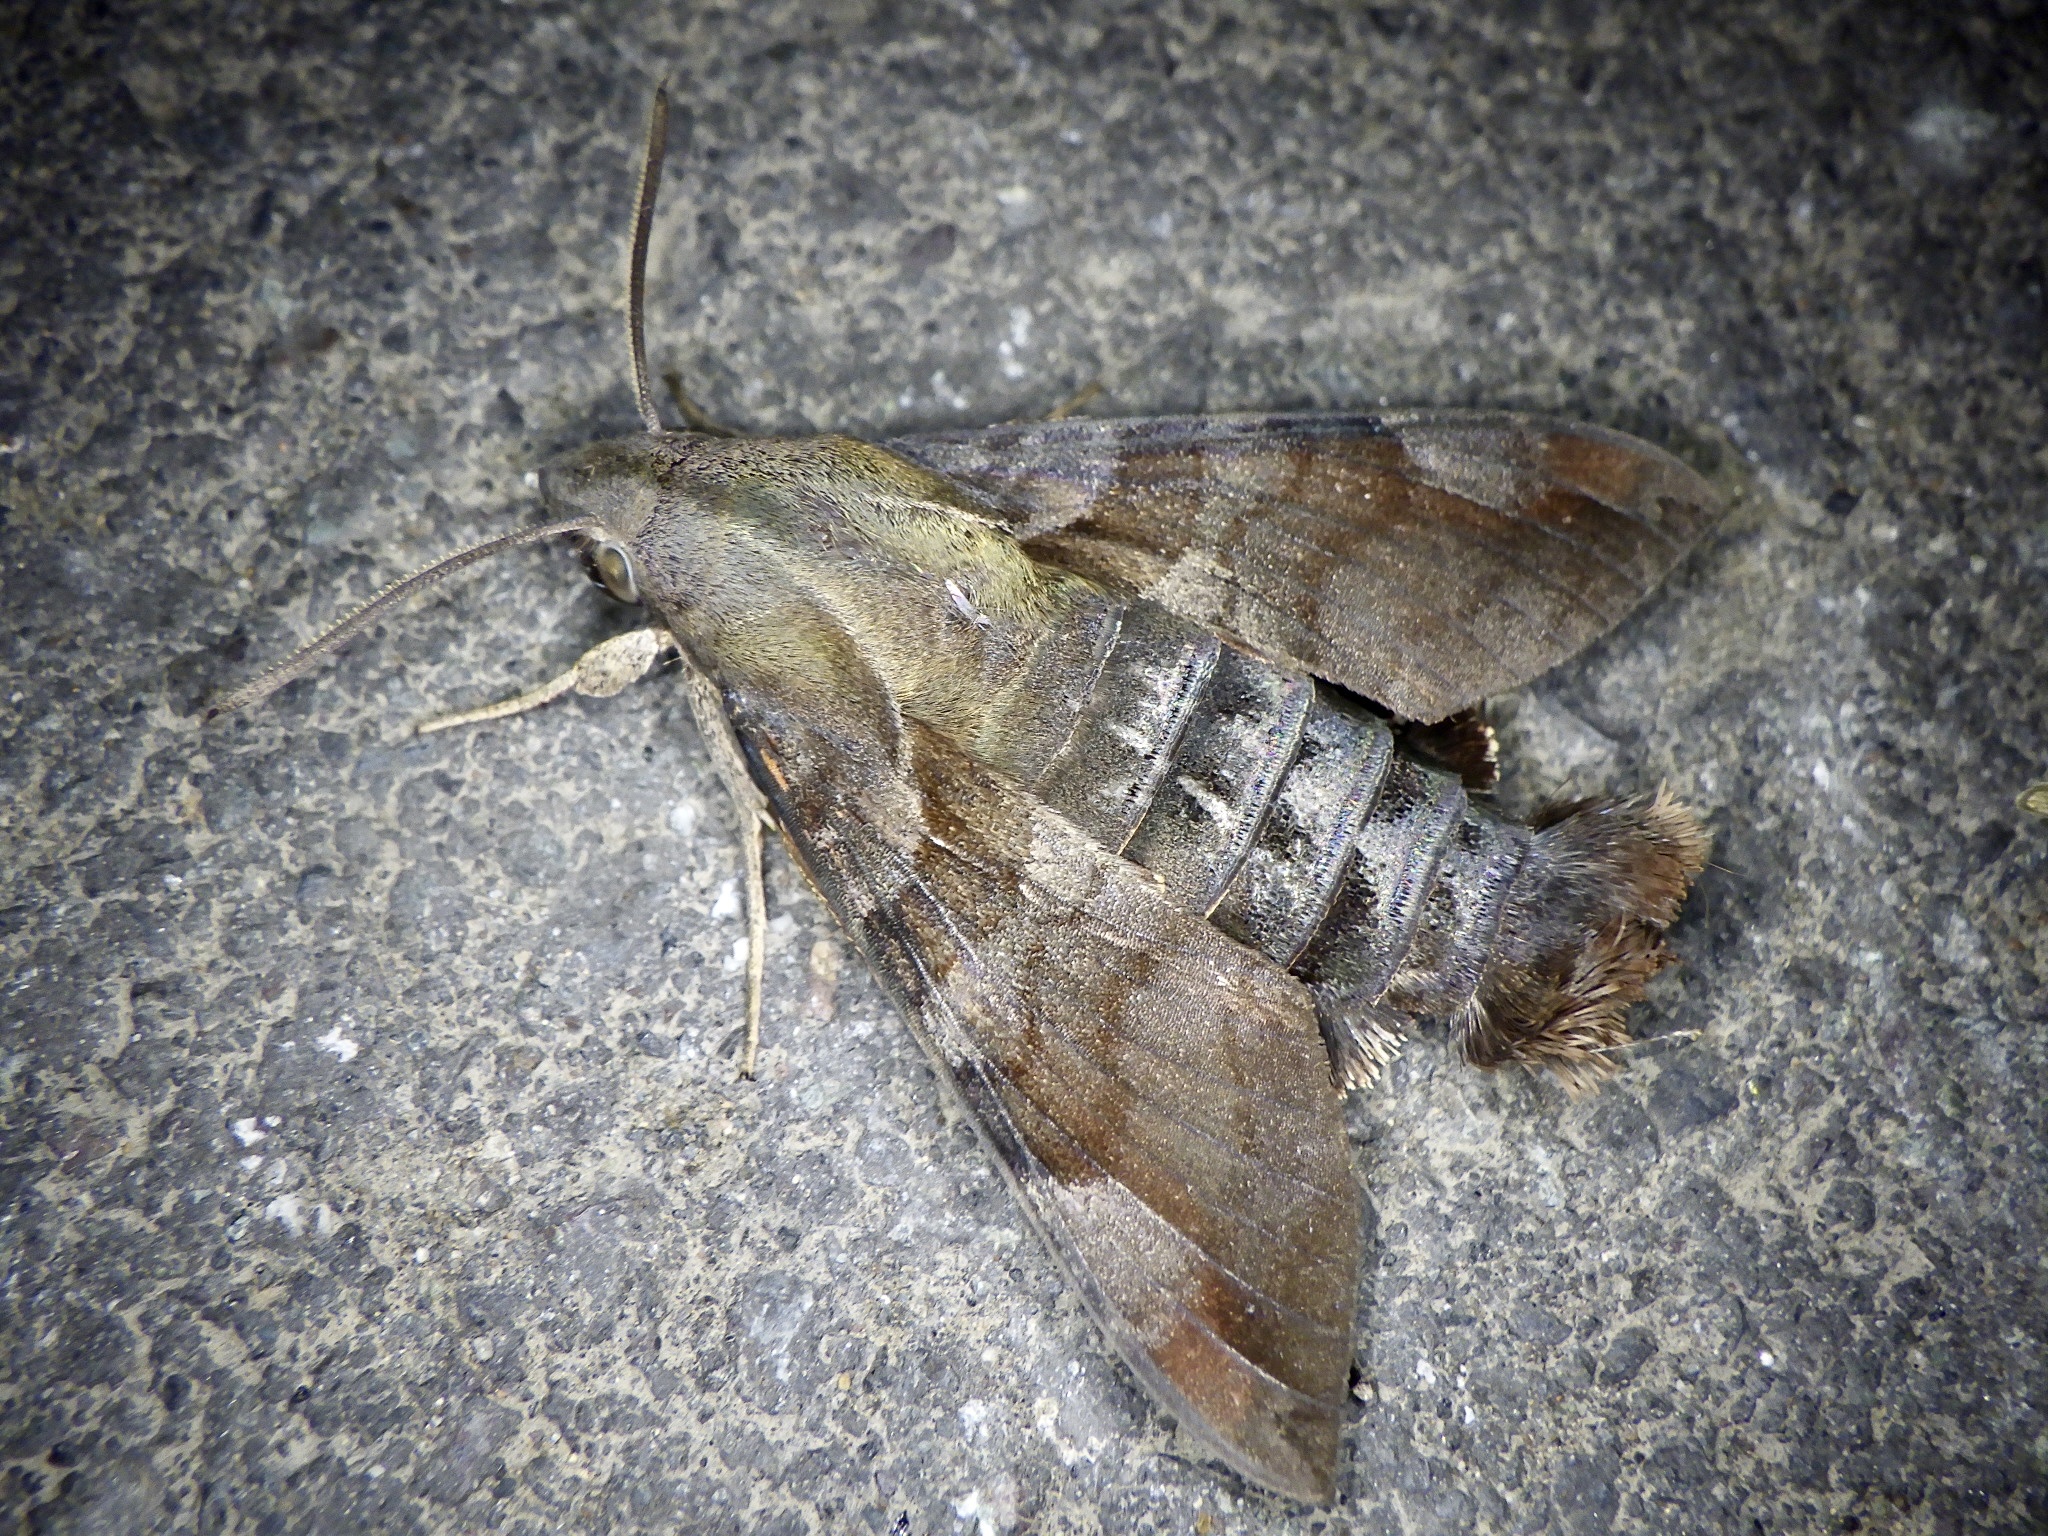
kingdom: Animalia
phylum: Arthropoda
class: Insecta
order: Lepidoptera
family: Sphingidae
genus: Macroglossum
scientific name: Macroglossum saga
